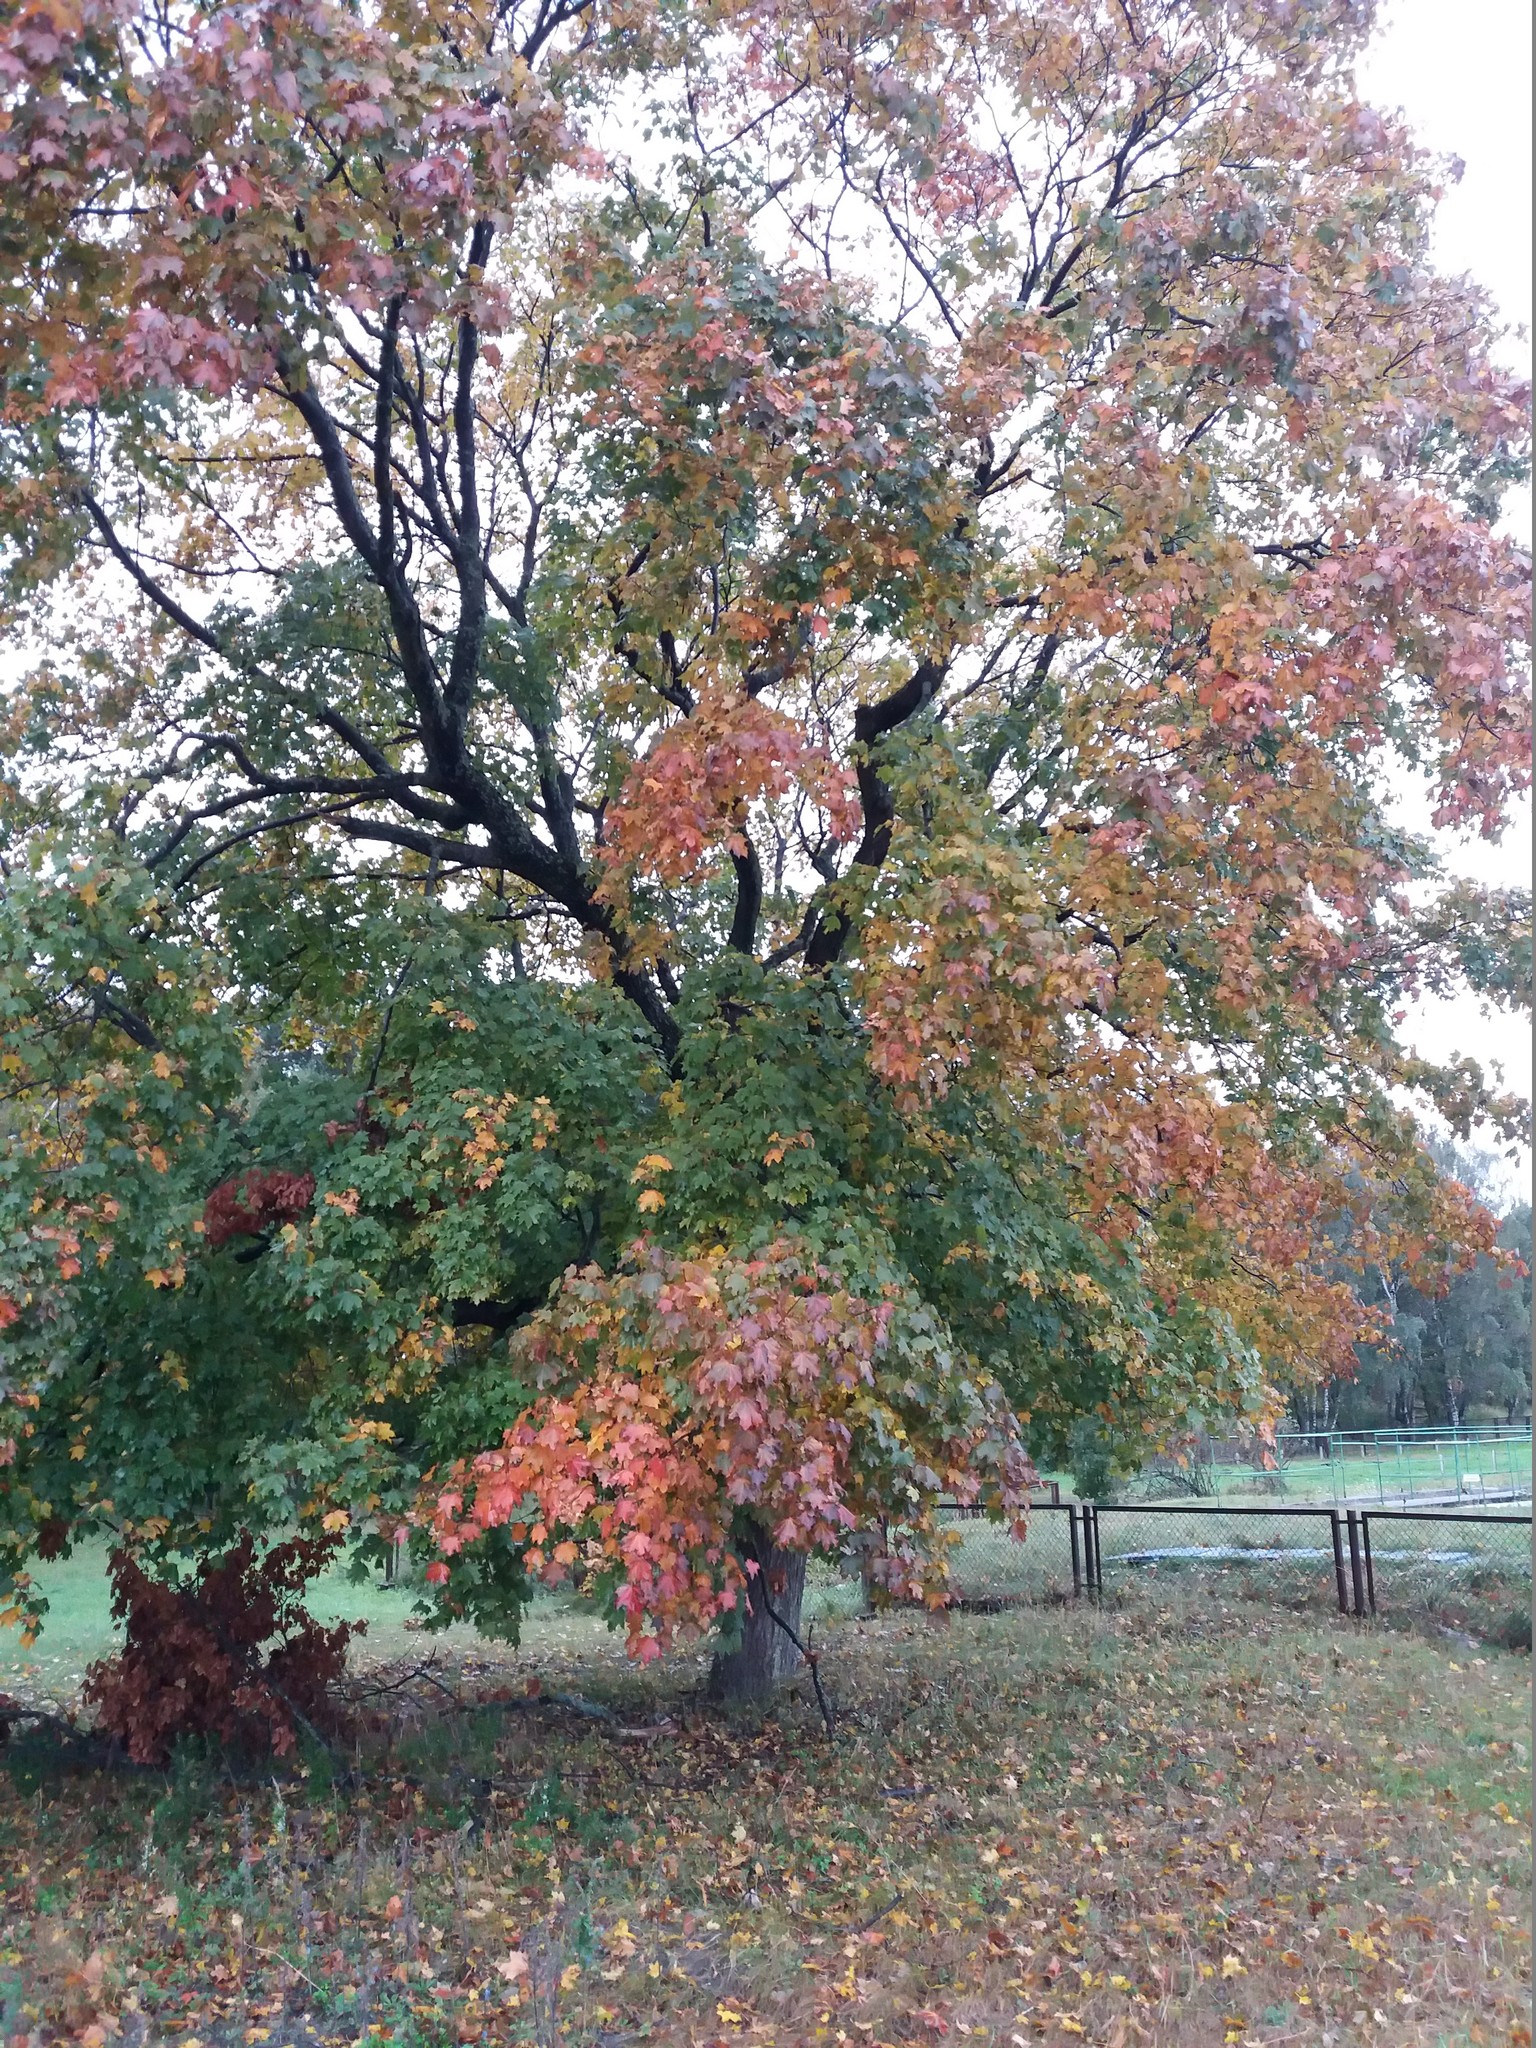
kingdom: Plantae
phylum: Tracheophyta
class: Magnoliopsida
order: Sapindales
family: Sapindaceae
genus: Acer
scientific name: Acer platanoides
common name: Norway maple
